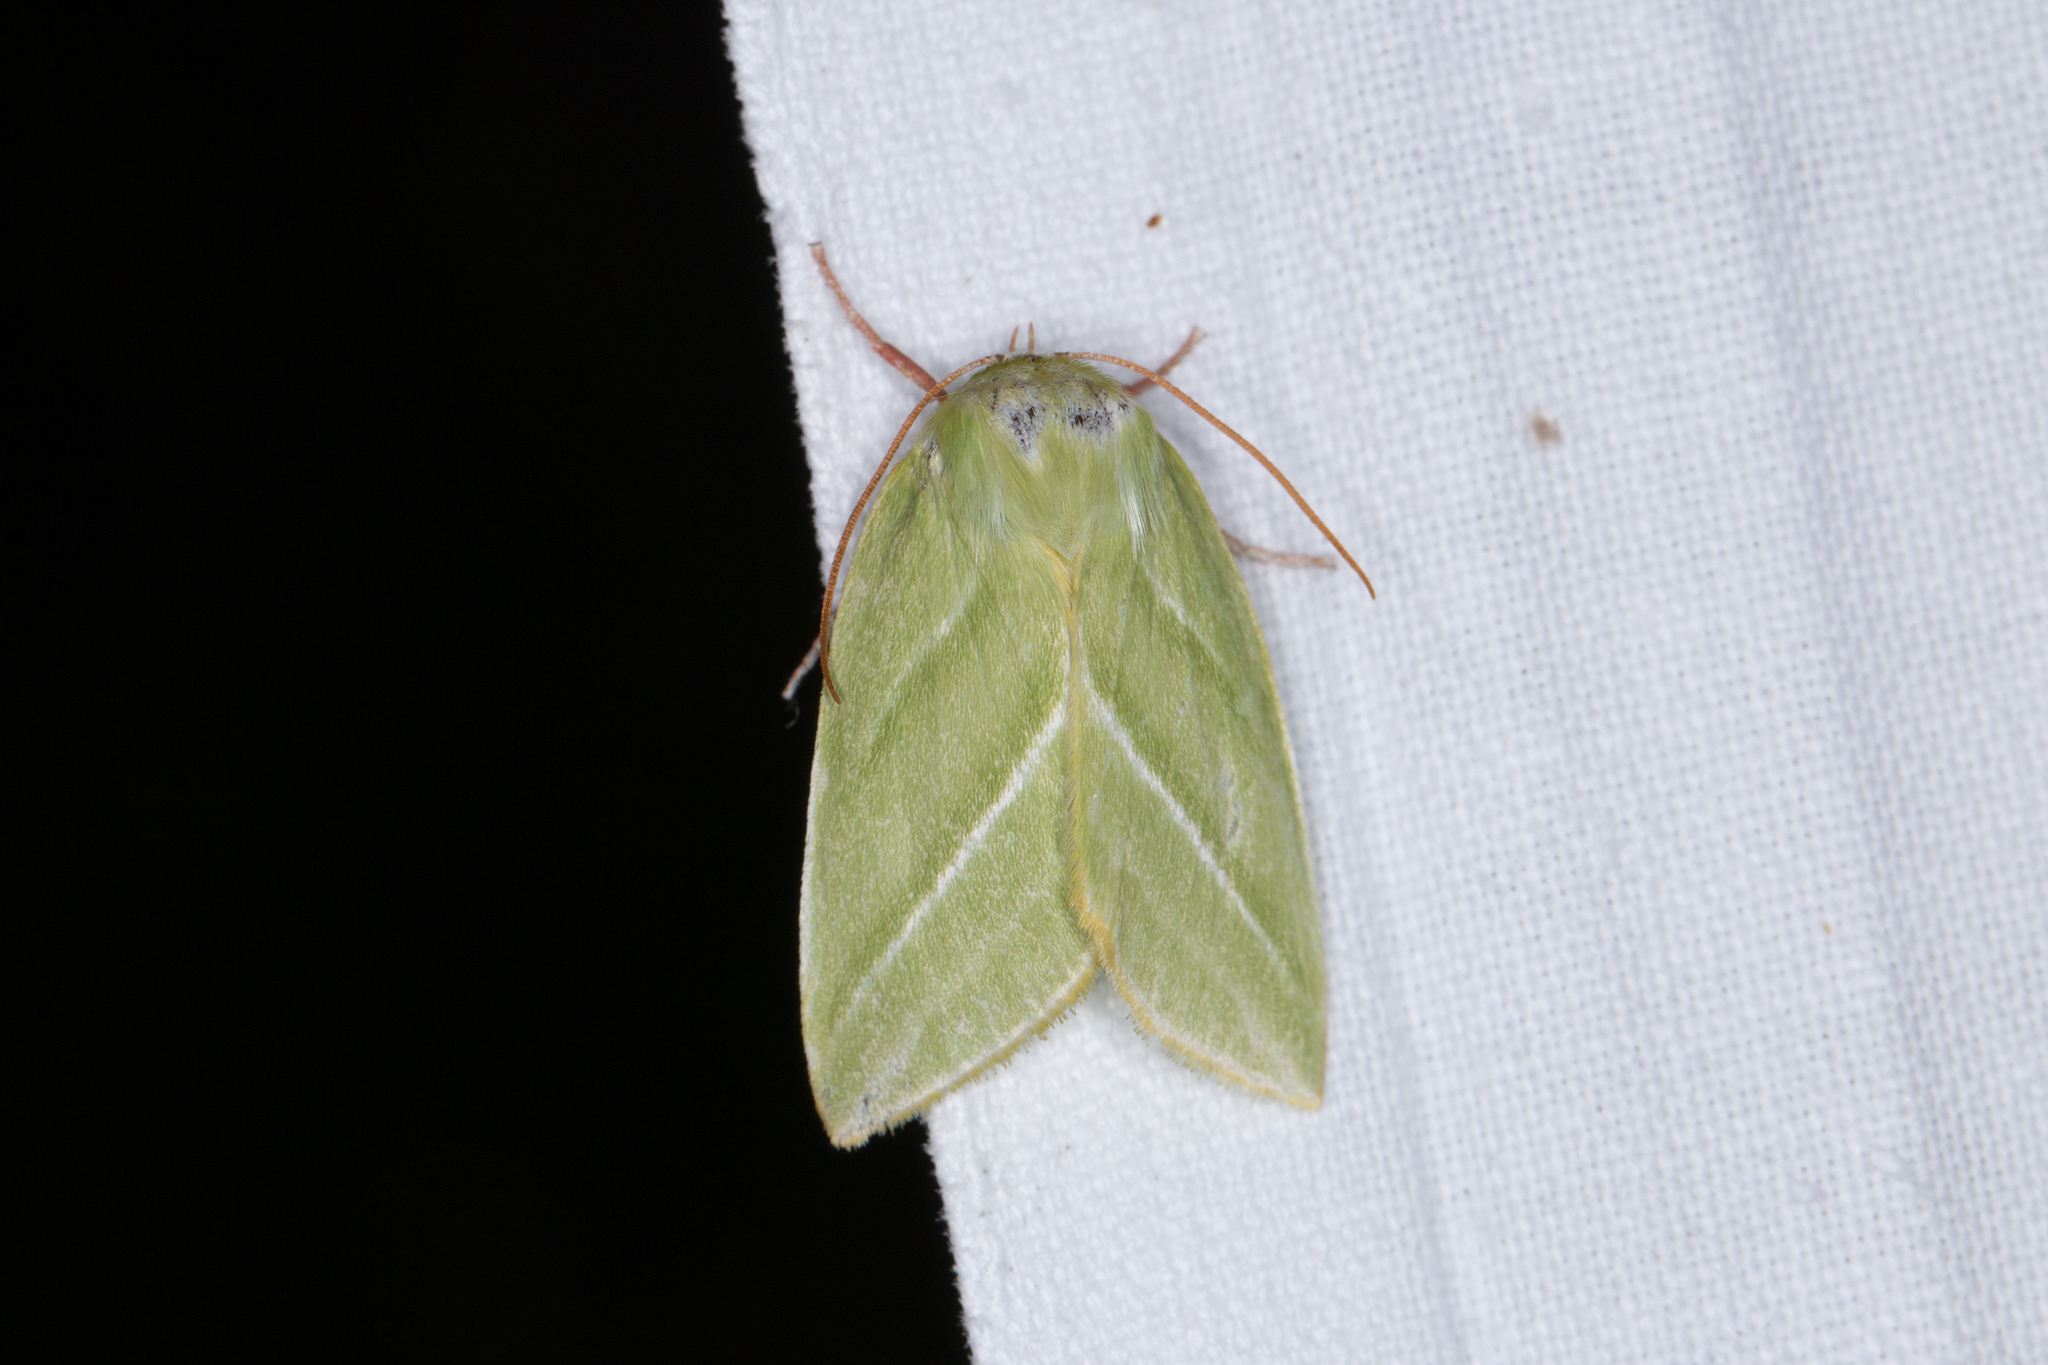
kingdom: Animalia
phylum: Arthropoda
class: Insecta
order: Lepidoptera
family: Nolidae
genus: Pseudoips
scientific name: Pseudoips prasinana
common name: Green silver-lines
